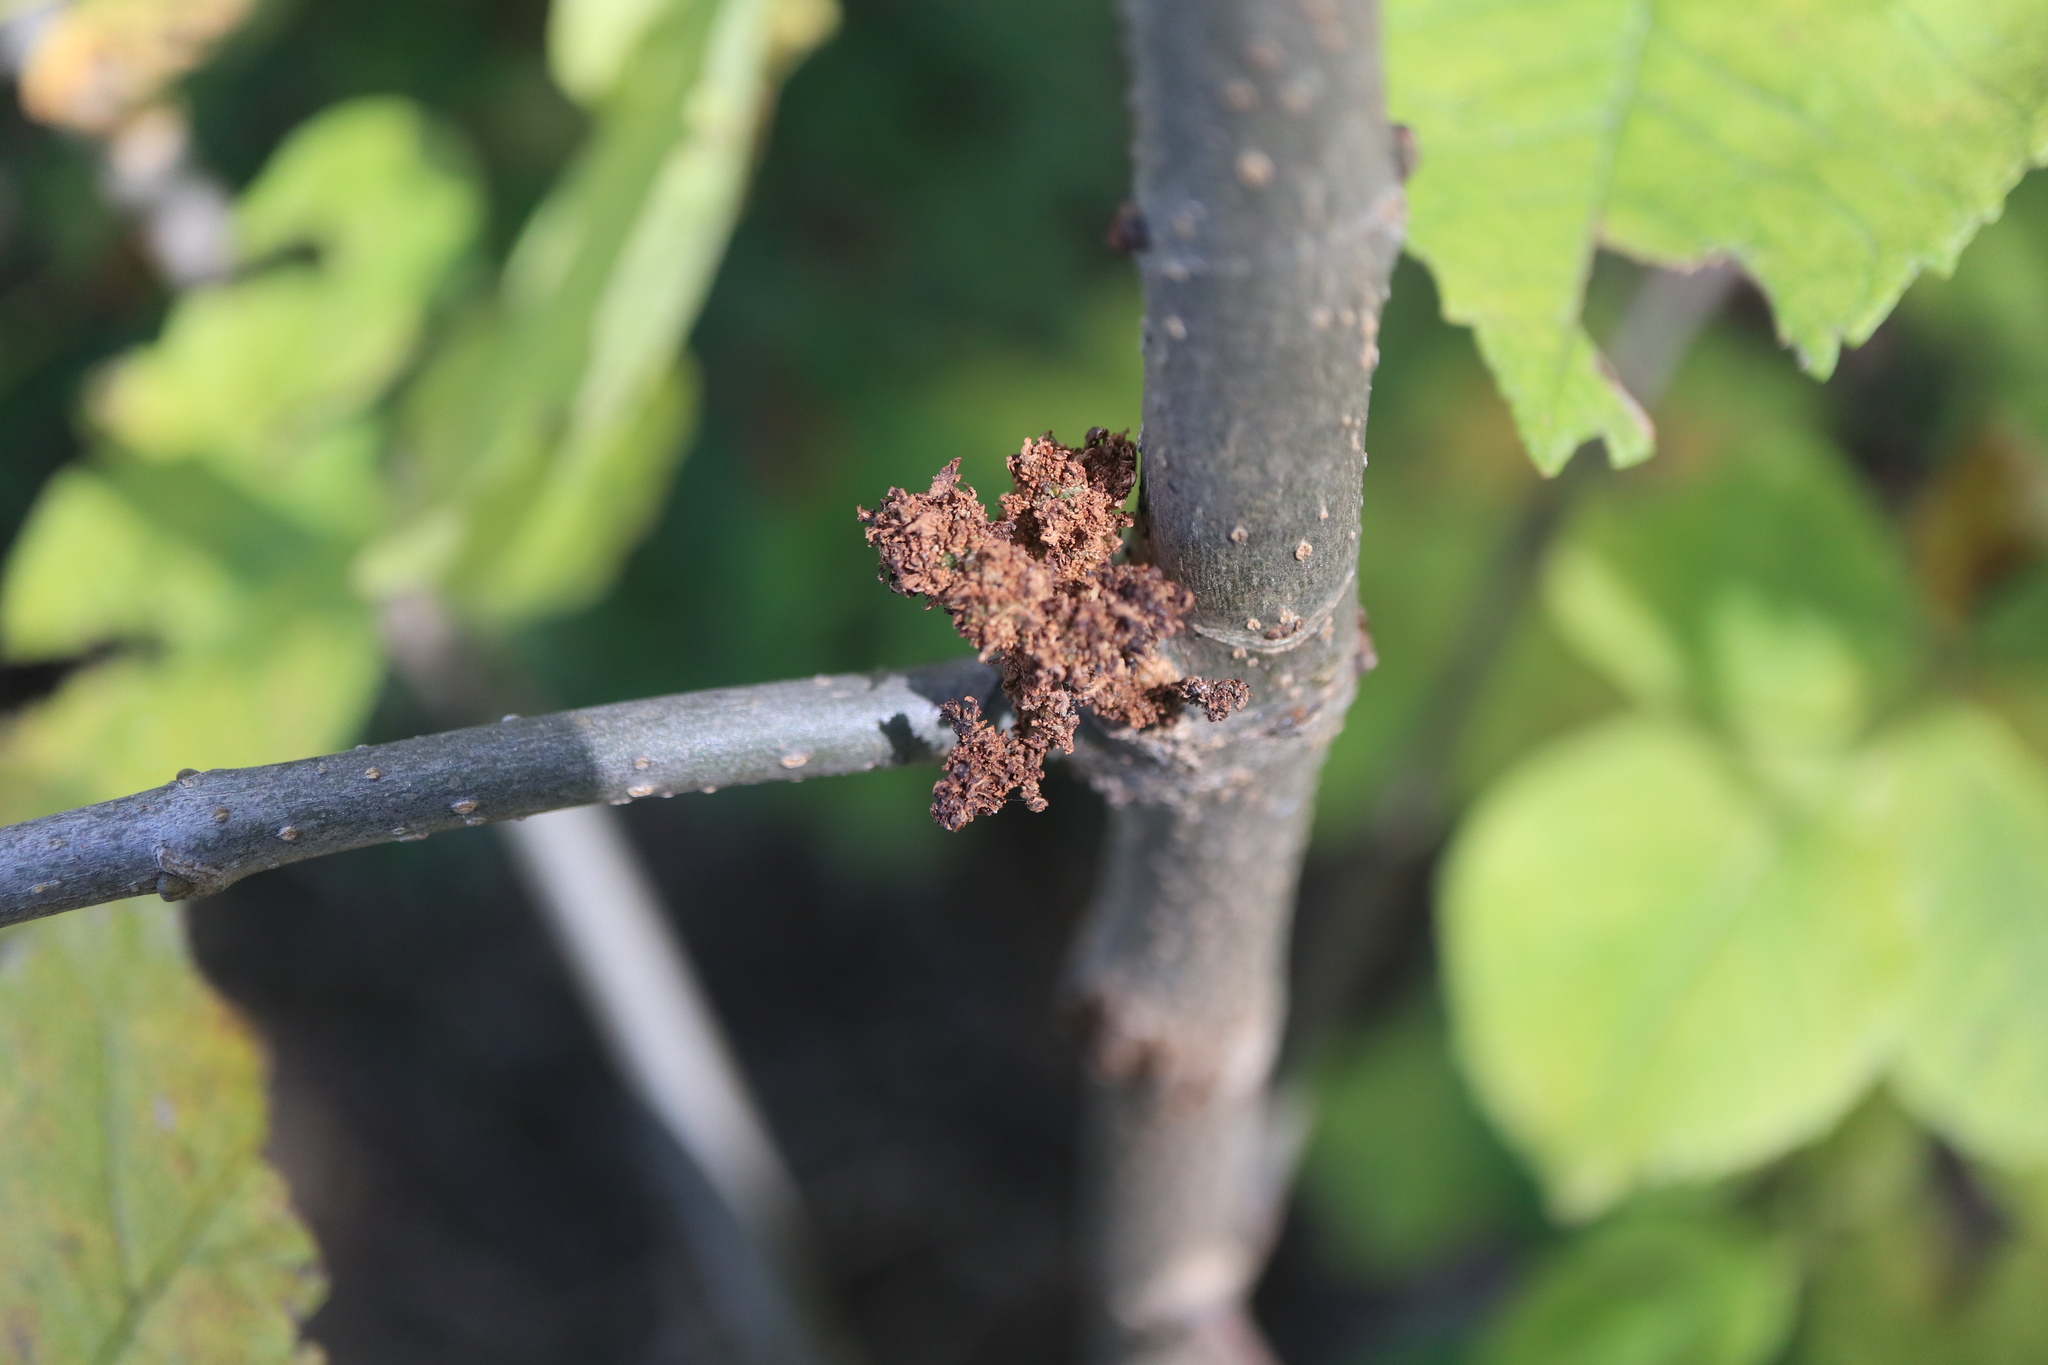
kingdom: Animalia
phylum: Arthropoda
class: Arachnida
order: Trombidiformes
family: Eriophyidae
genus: Aceria
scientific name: Aceria fraxiniflora
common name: Ash flower gall mite
